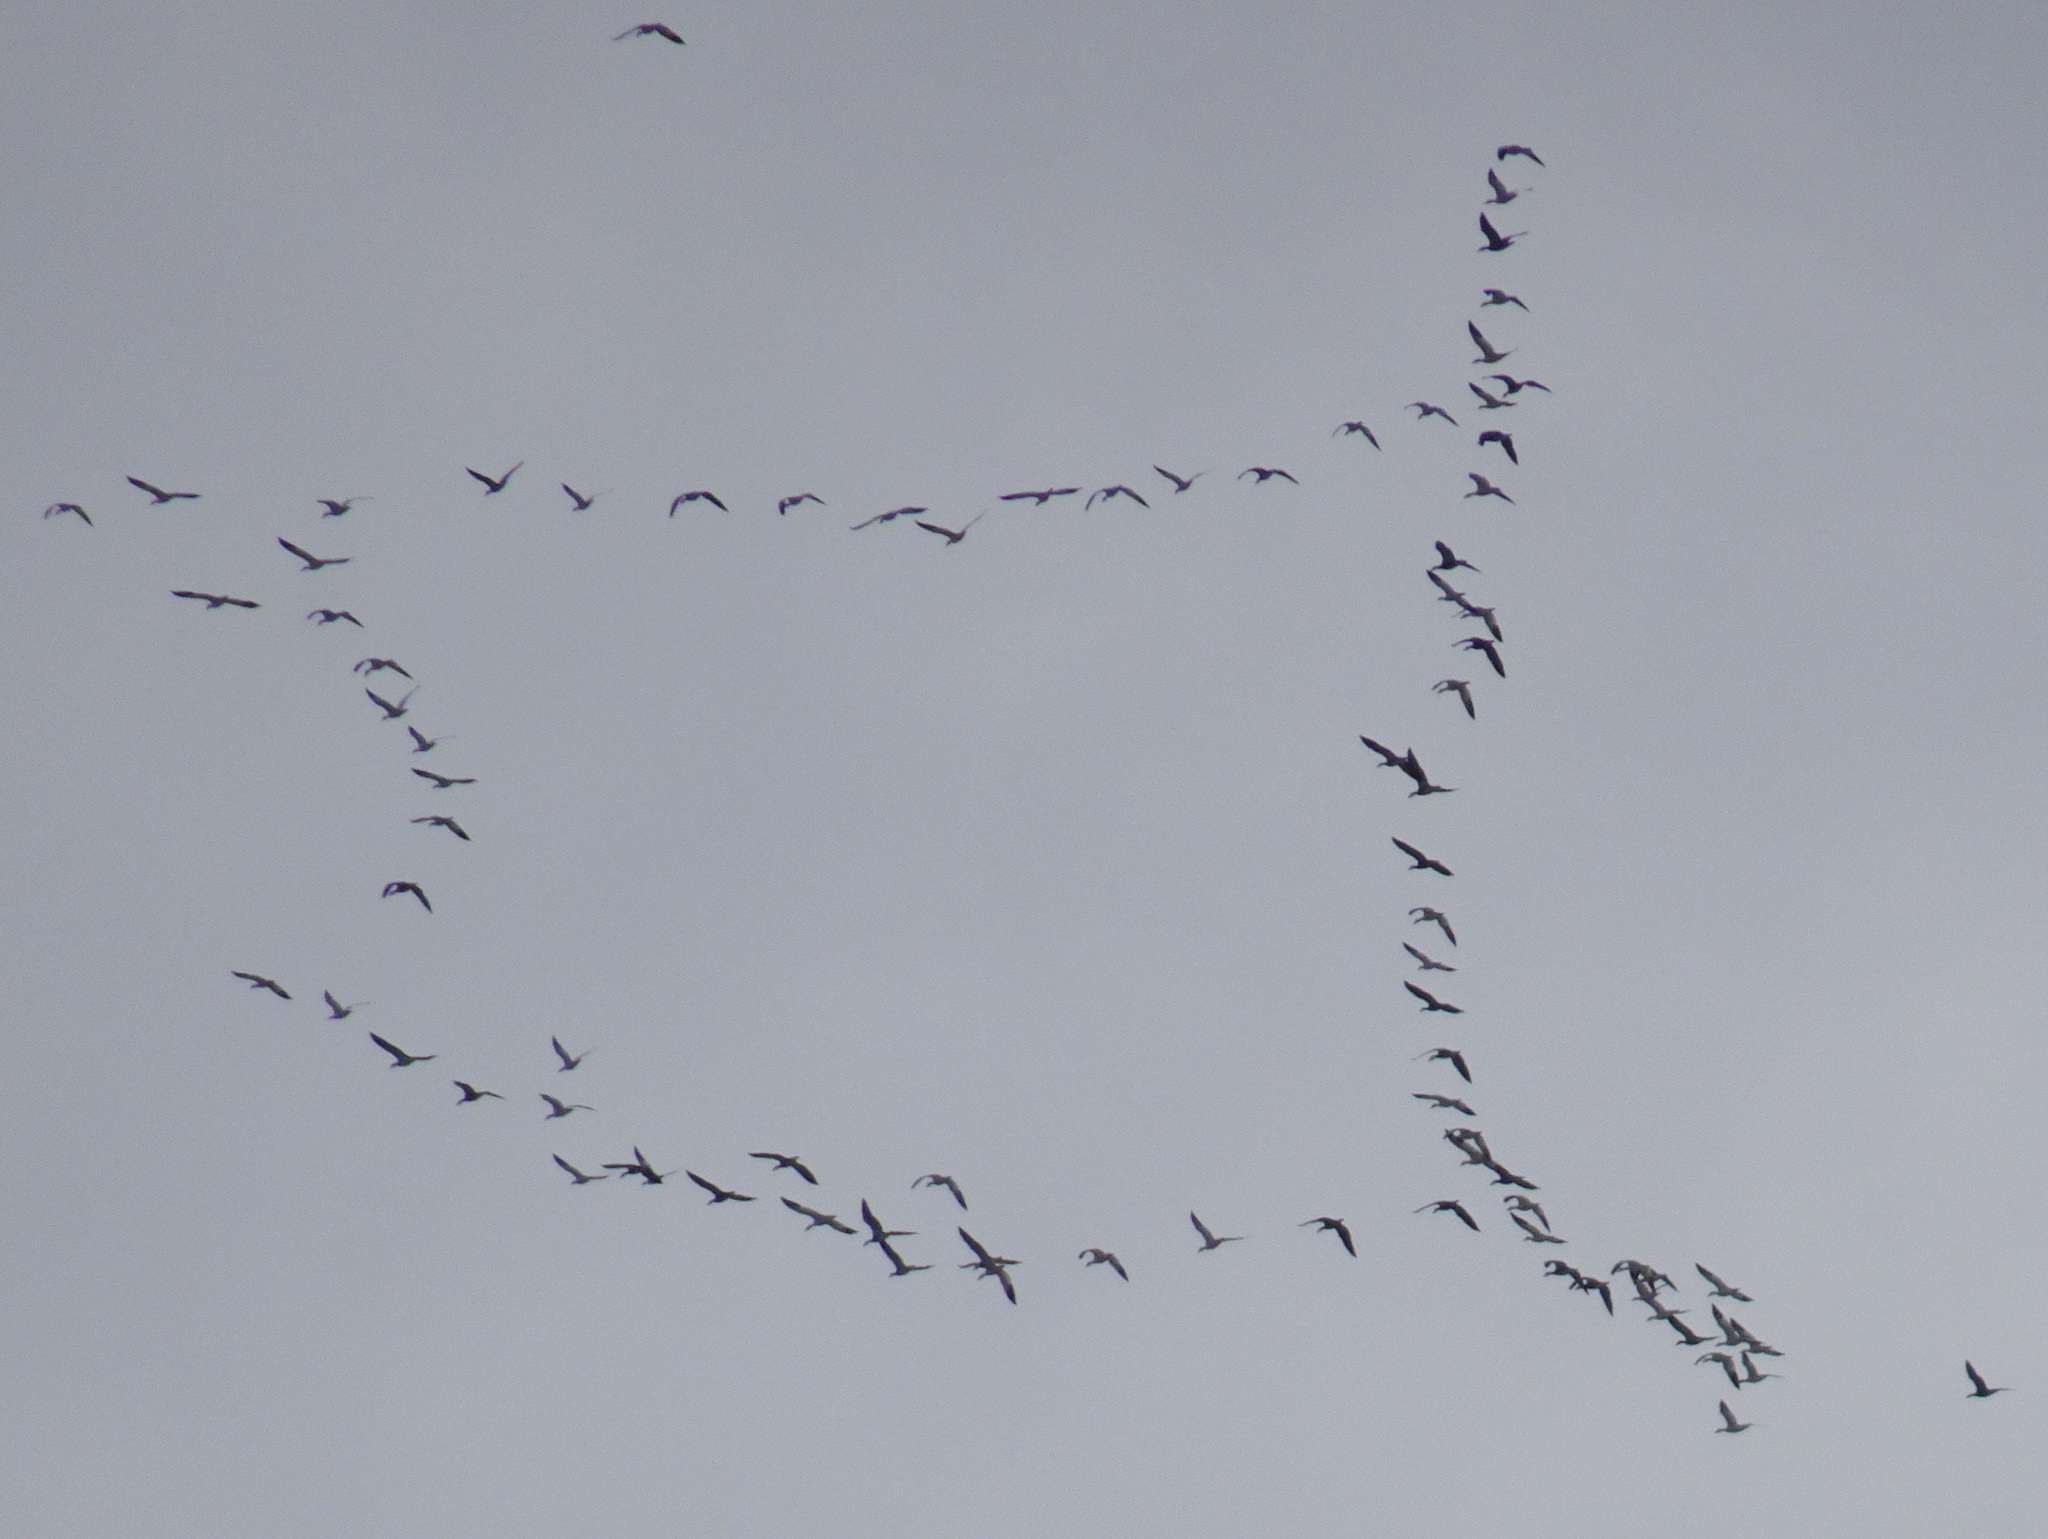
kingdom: Animalia
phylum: Chordata
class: Aves
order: Anseriformes
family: Anatidae
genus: Anser
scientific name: Anser caerulescens
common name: Snow goose
